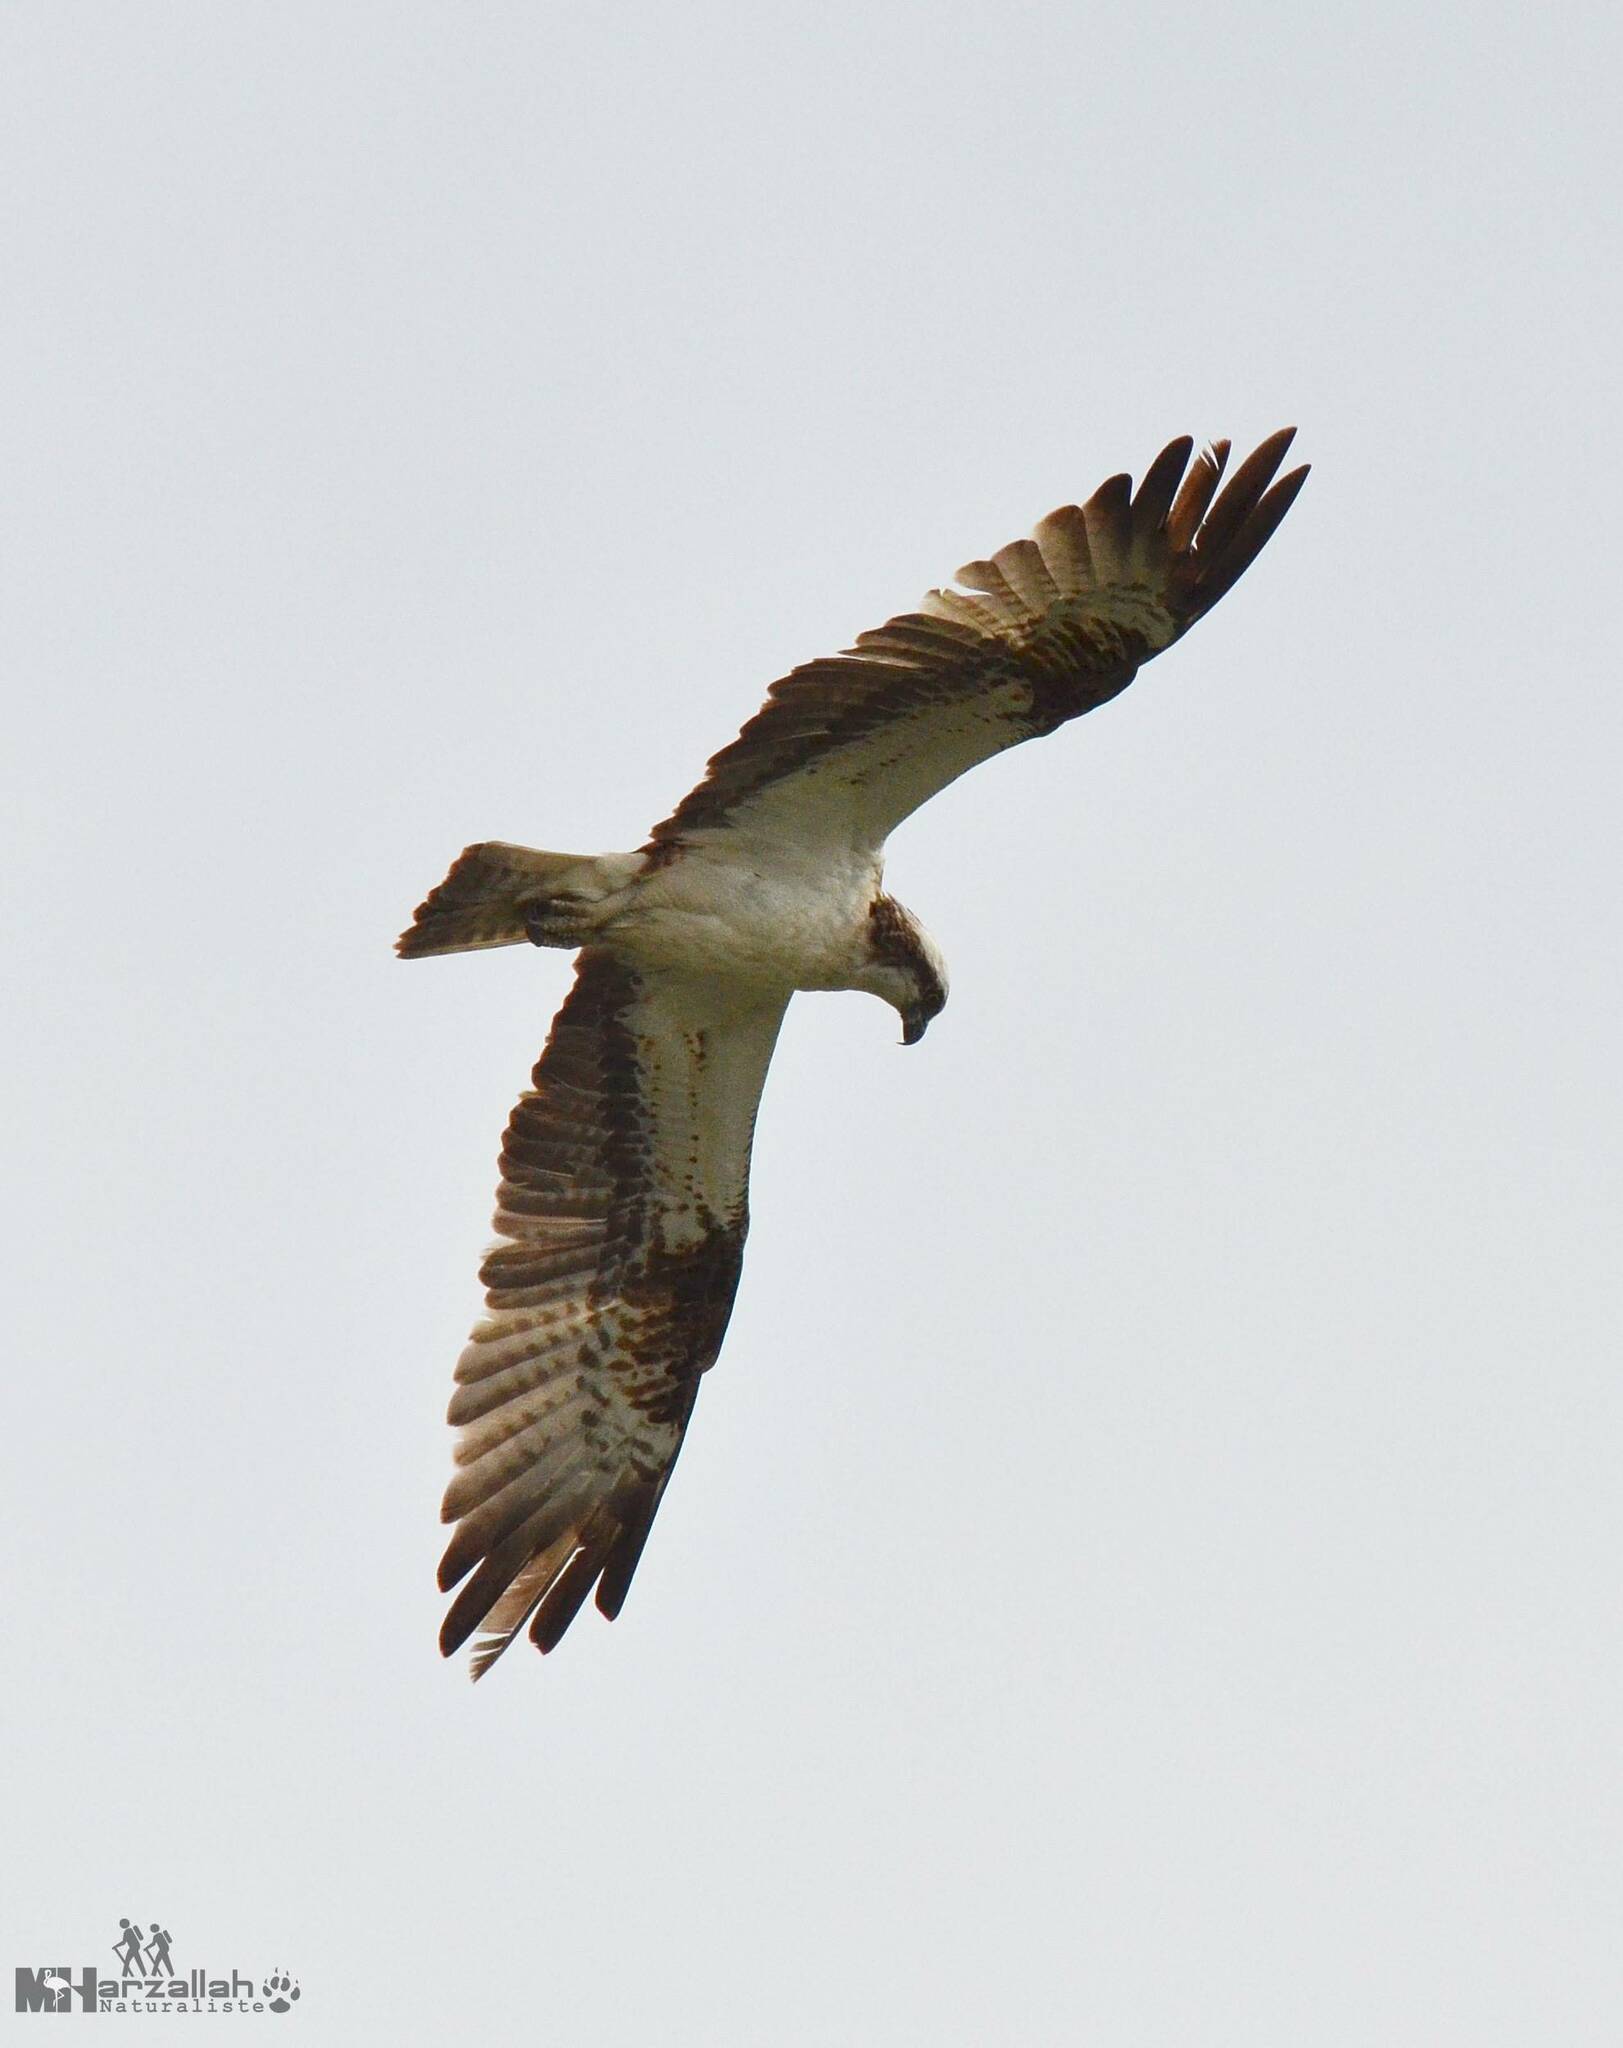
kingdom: Animalia
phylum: Chordata
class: Aves
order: Accipitriformes
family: Pandionidae
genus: Pandion
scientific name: Pandion haliaetus
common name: Osprey
